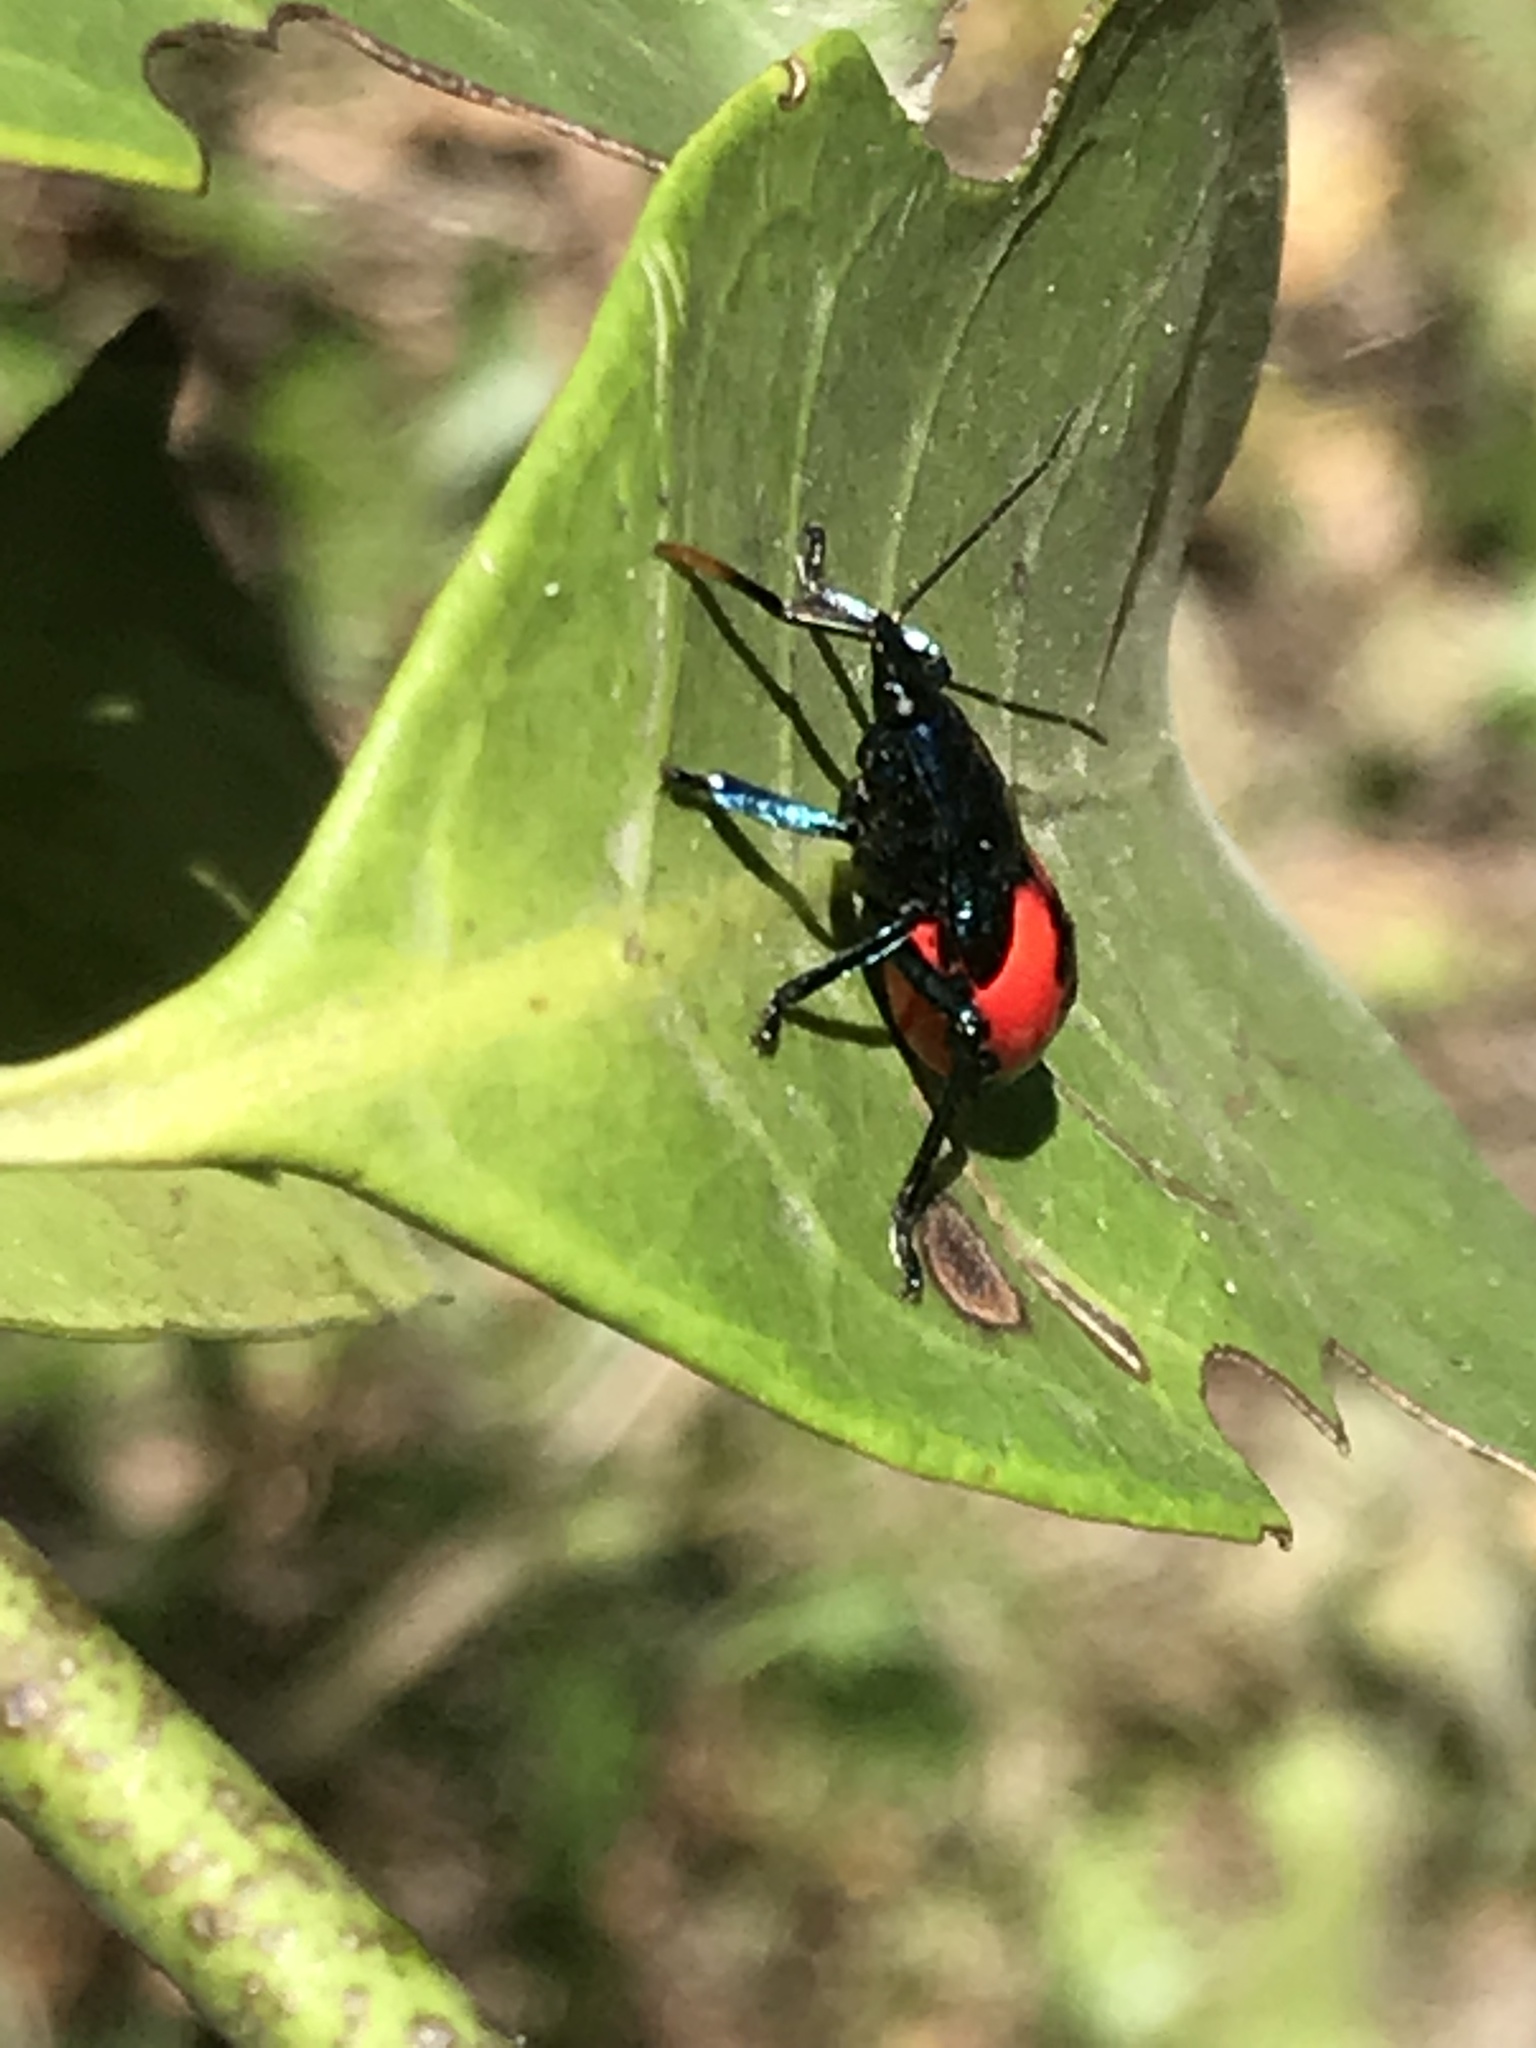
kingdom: Animalia
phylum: Arthropoda
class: Insecta
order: Hemiptera
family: Pentatomidae
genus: Euthyrhynchus
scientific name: Euthyrhynchus floridanus
